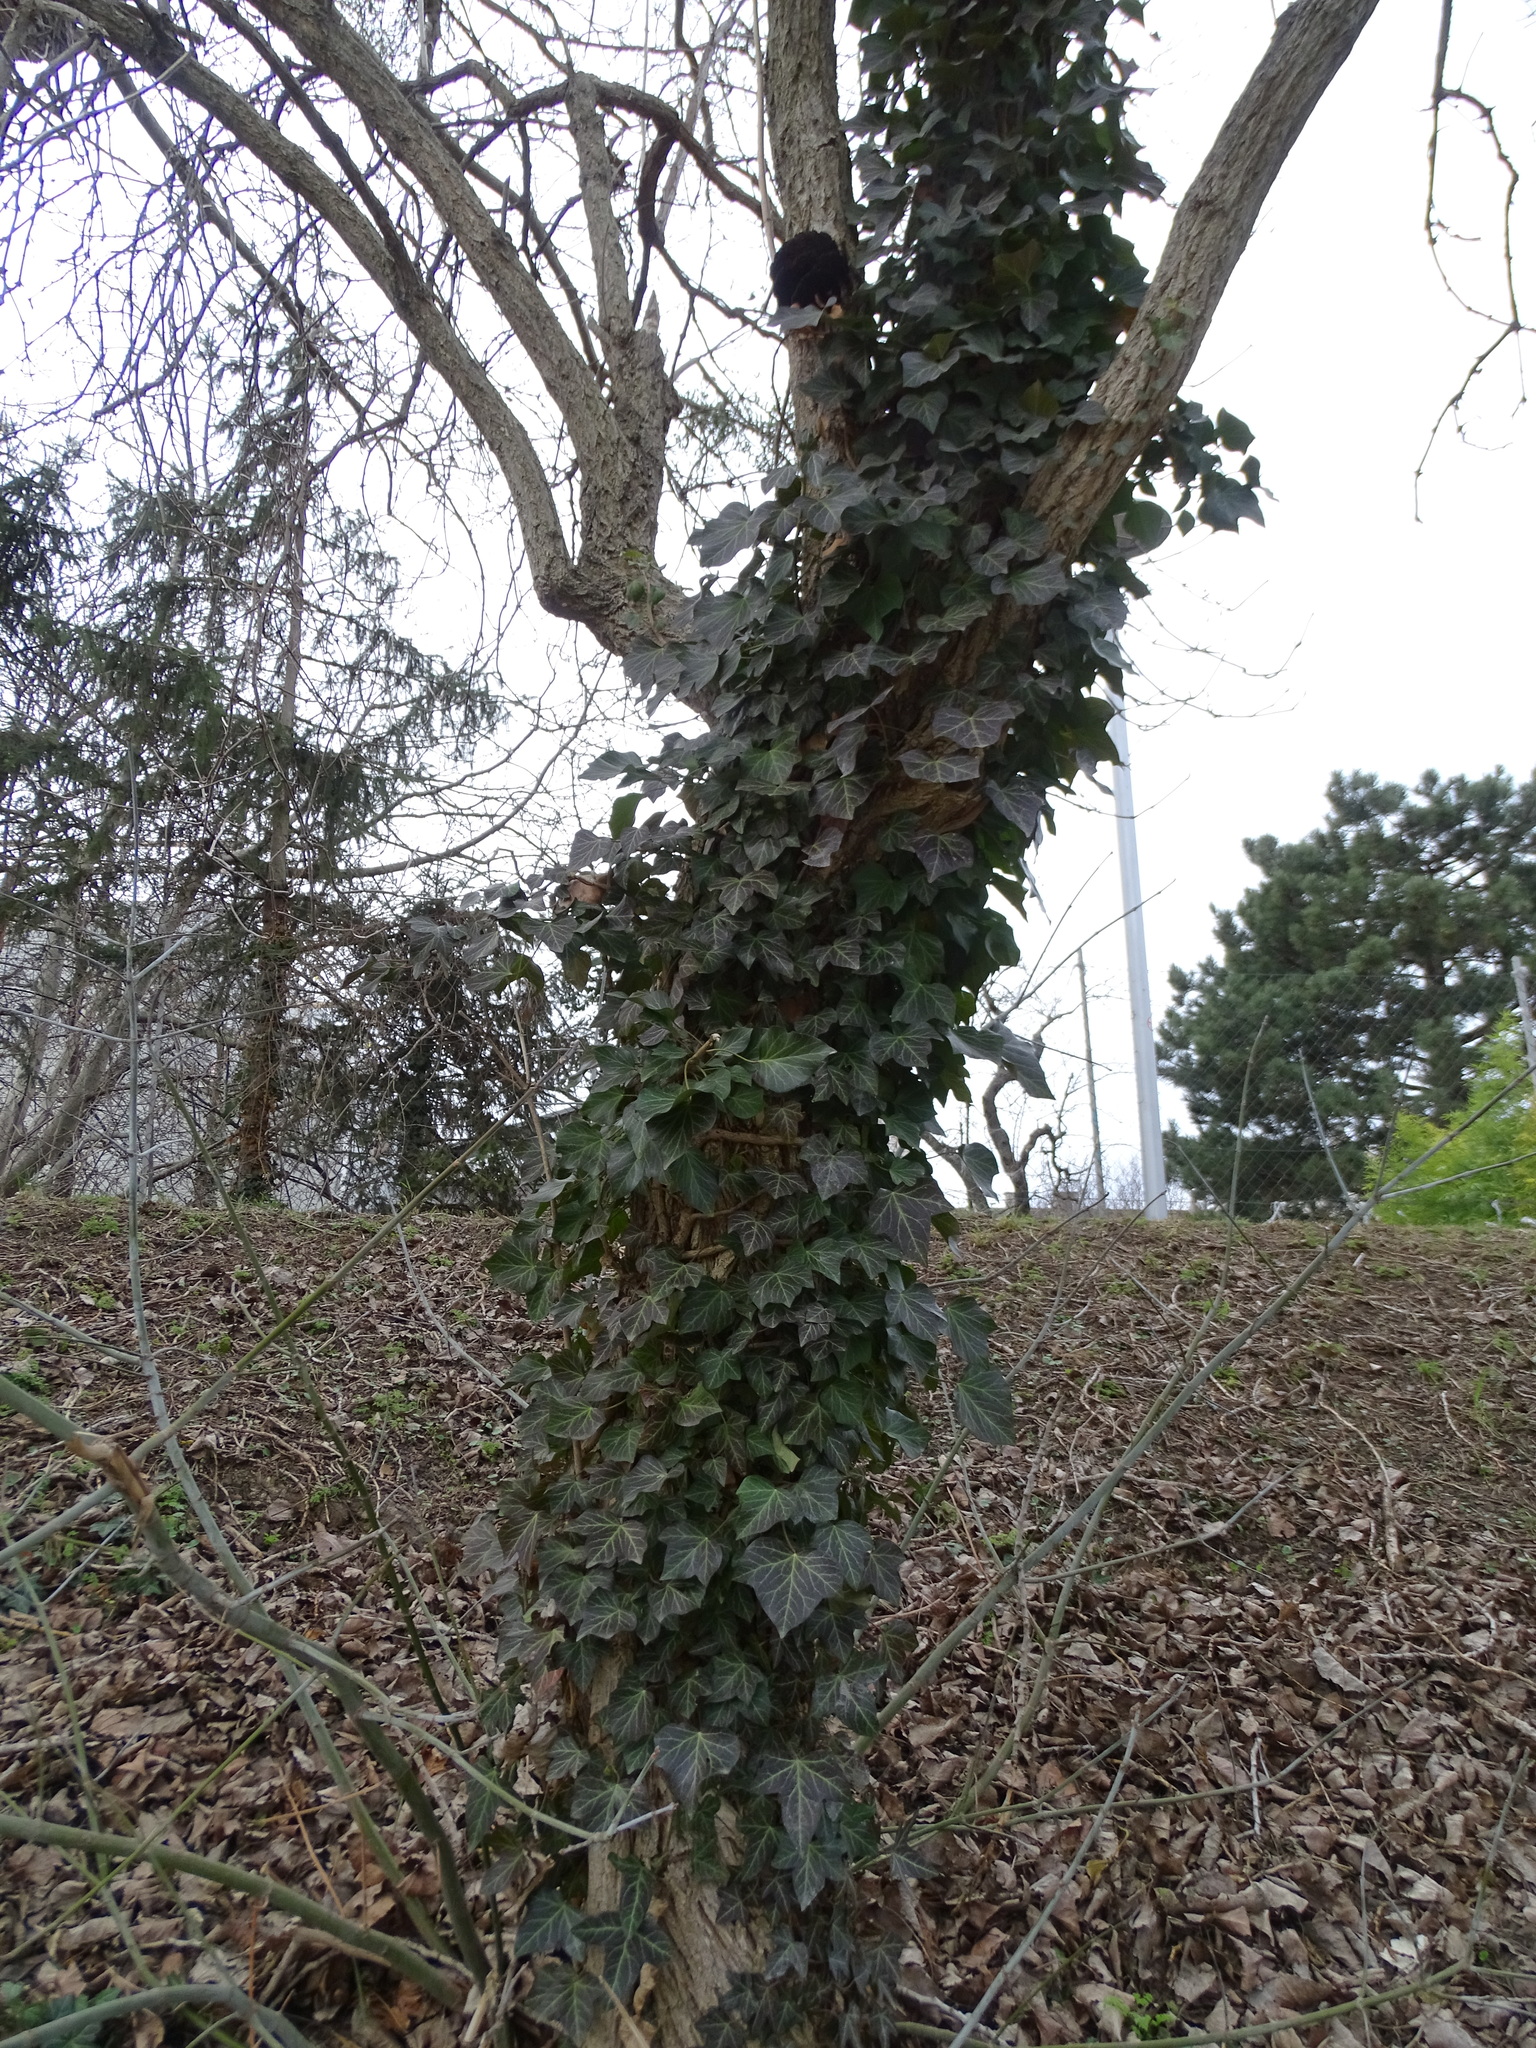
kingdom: Plantae
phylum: Tracheophyta
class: Magnoliopsida
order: Apiales
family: Araliaceae
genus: Hedera
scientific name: Hedera helix
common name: Ivy
